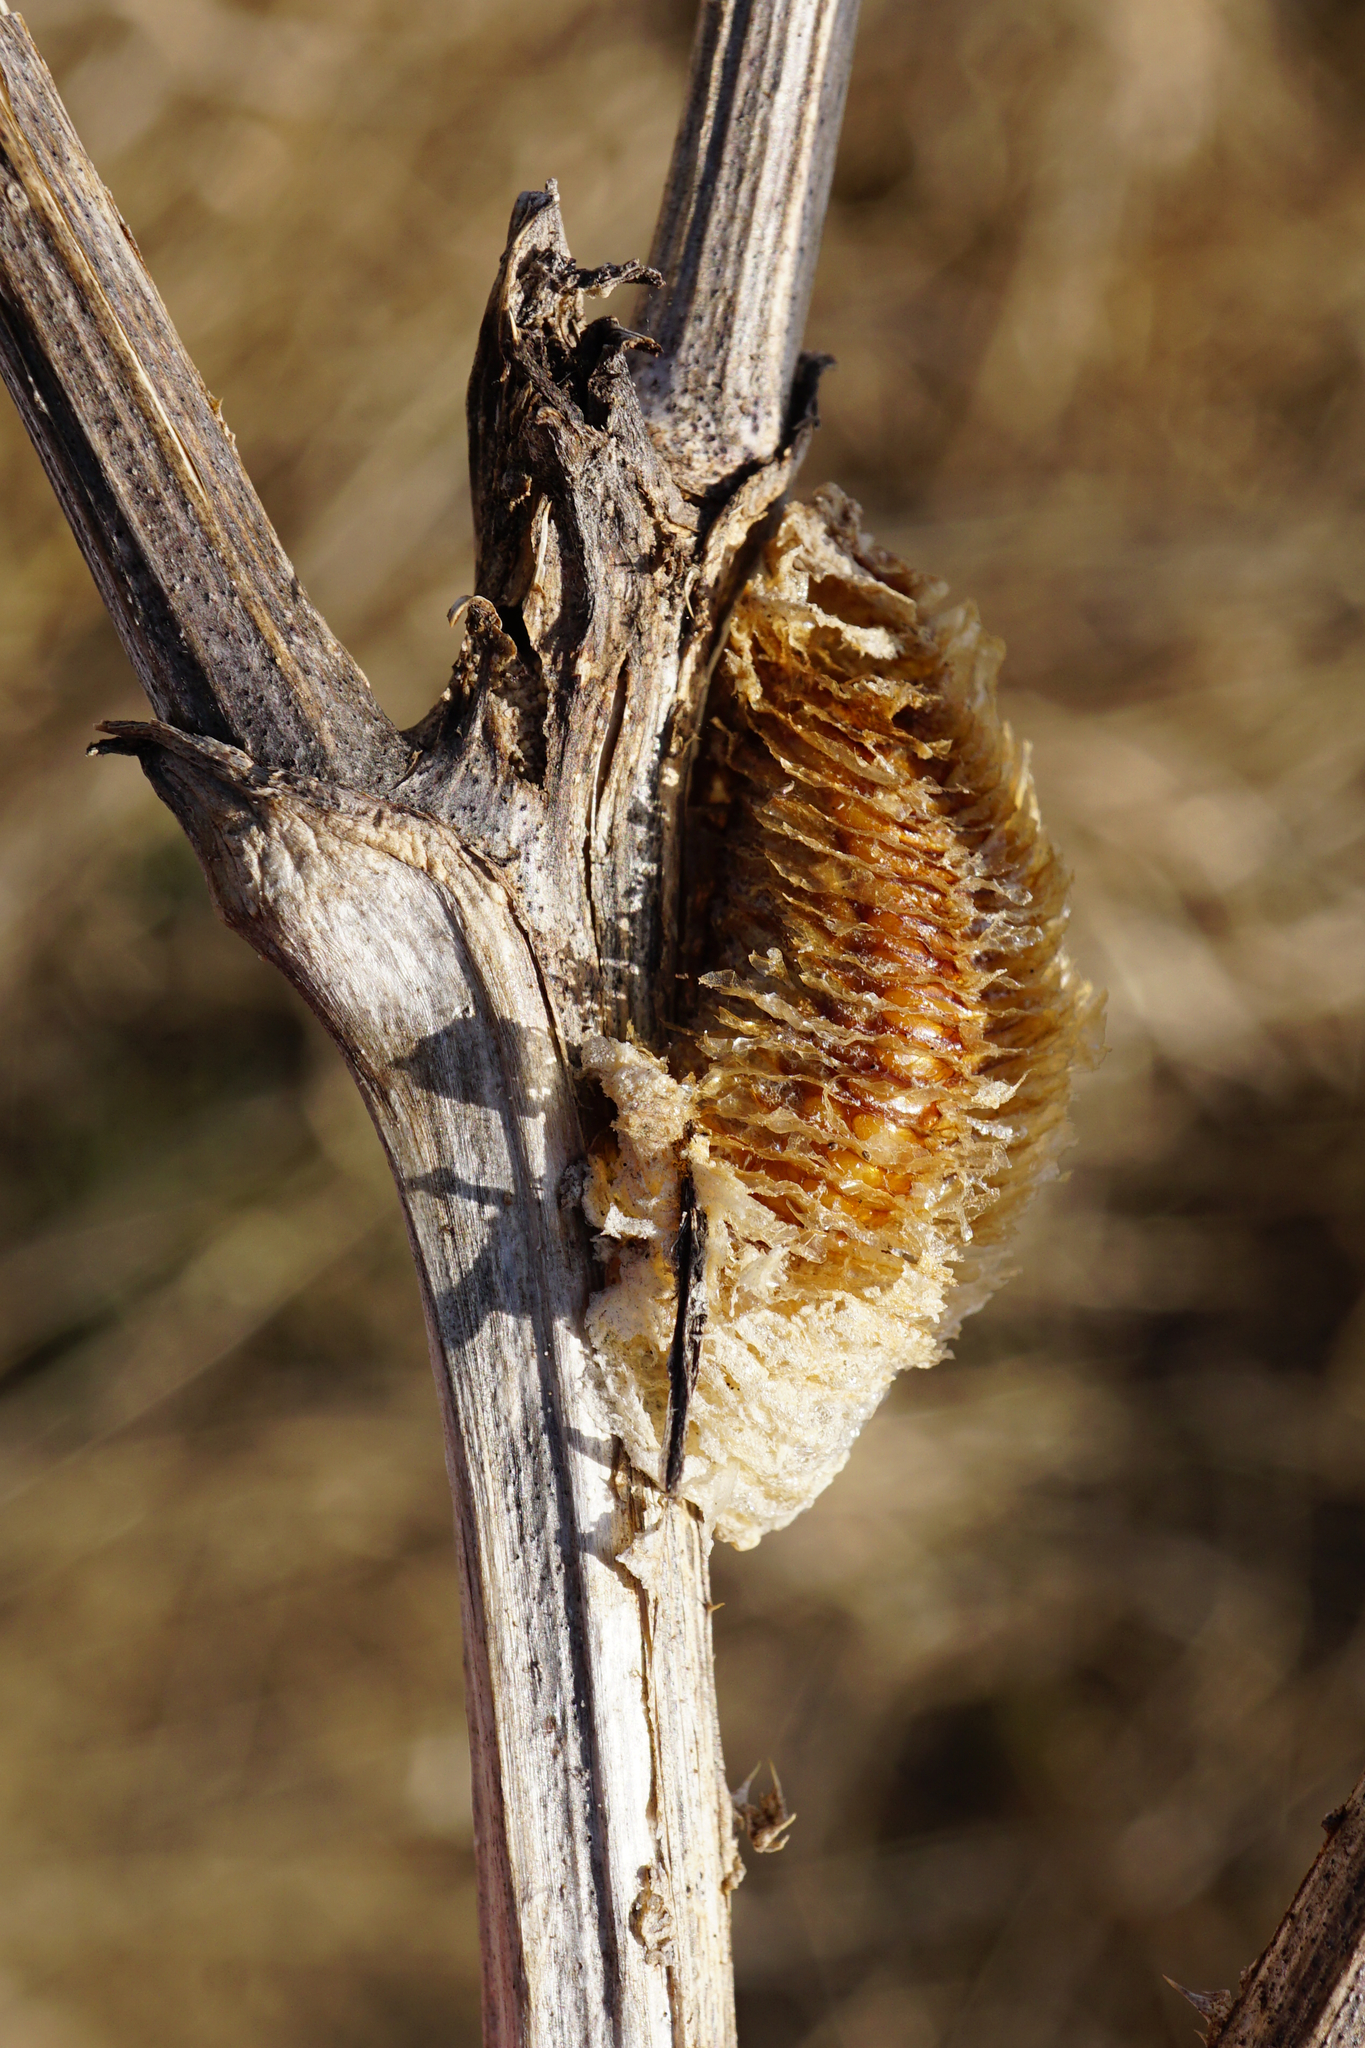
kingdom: Animalia
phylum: Arthropoda
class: Insecta
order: Mantodea
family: Mantidae
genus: Mantis
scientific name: Mantis religiosa
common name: Praying mantis
